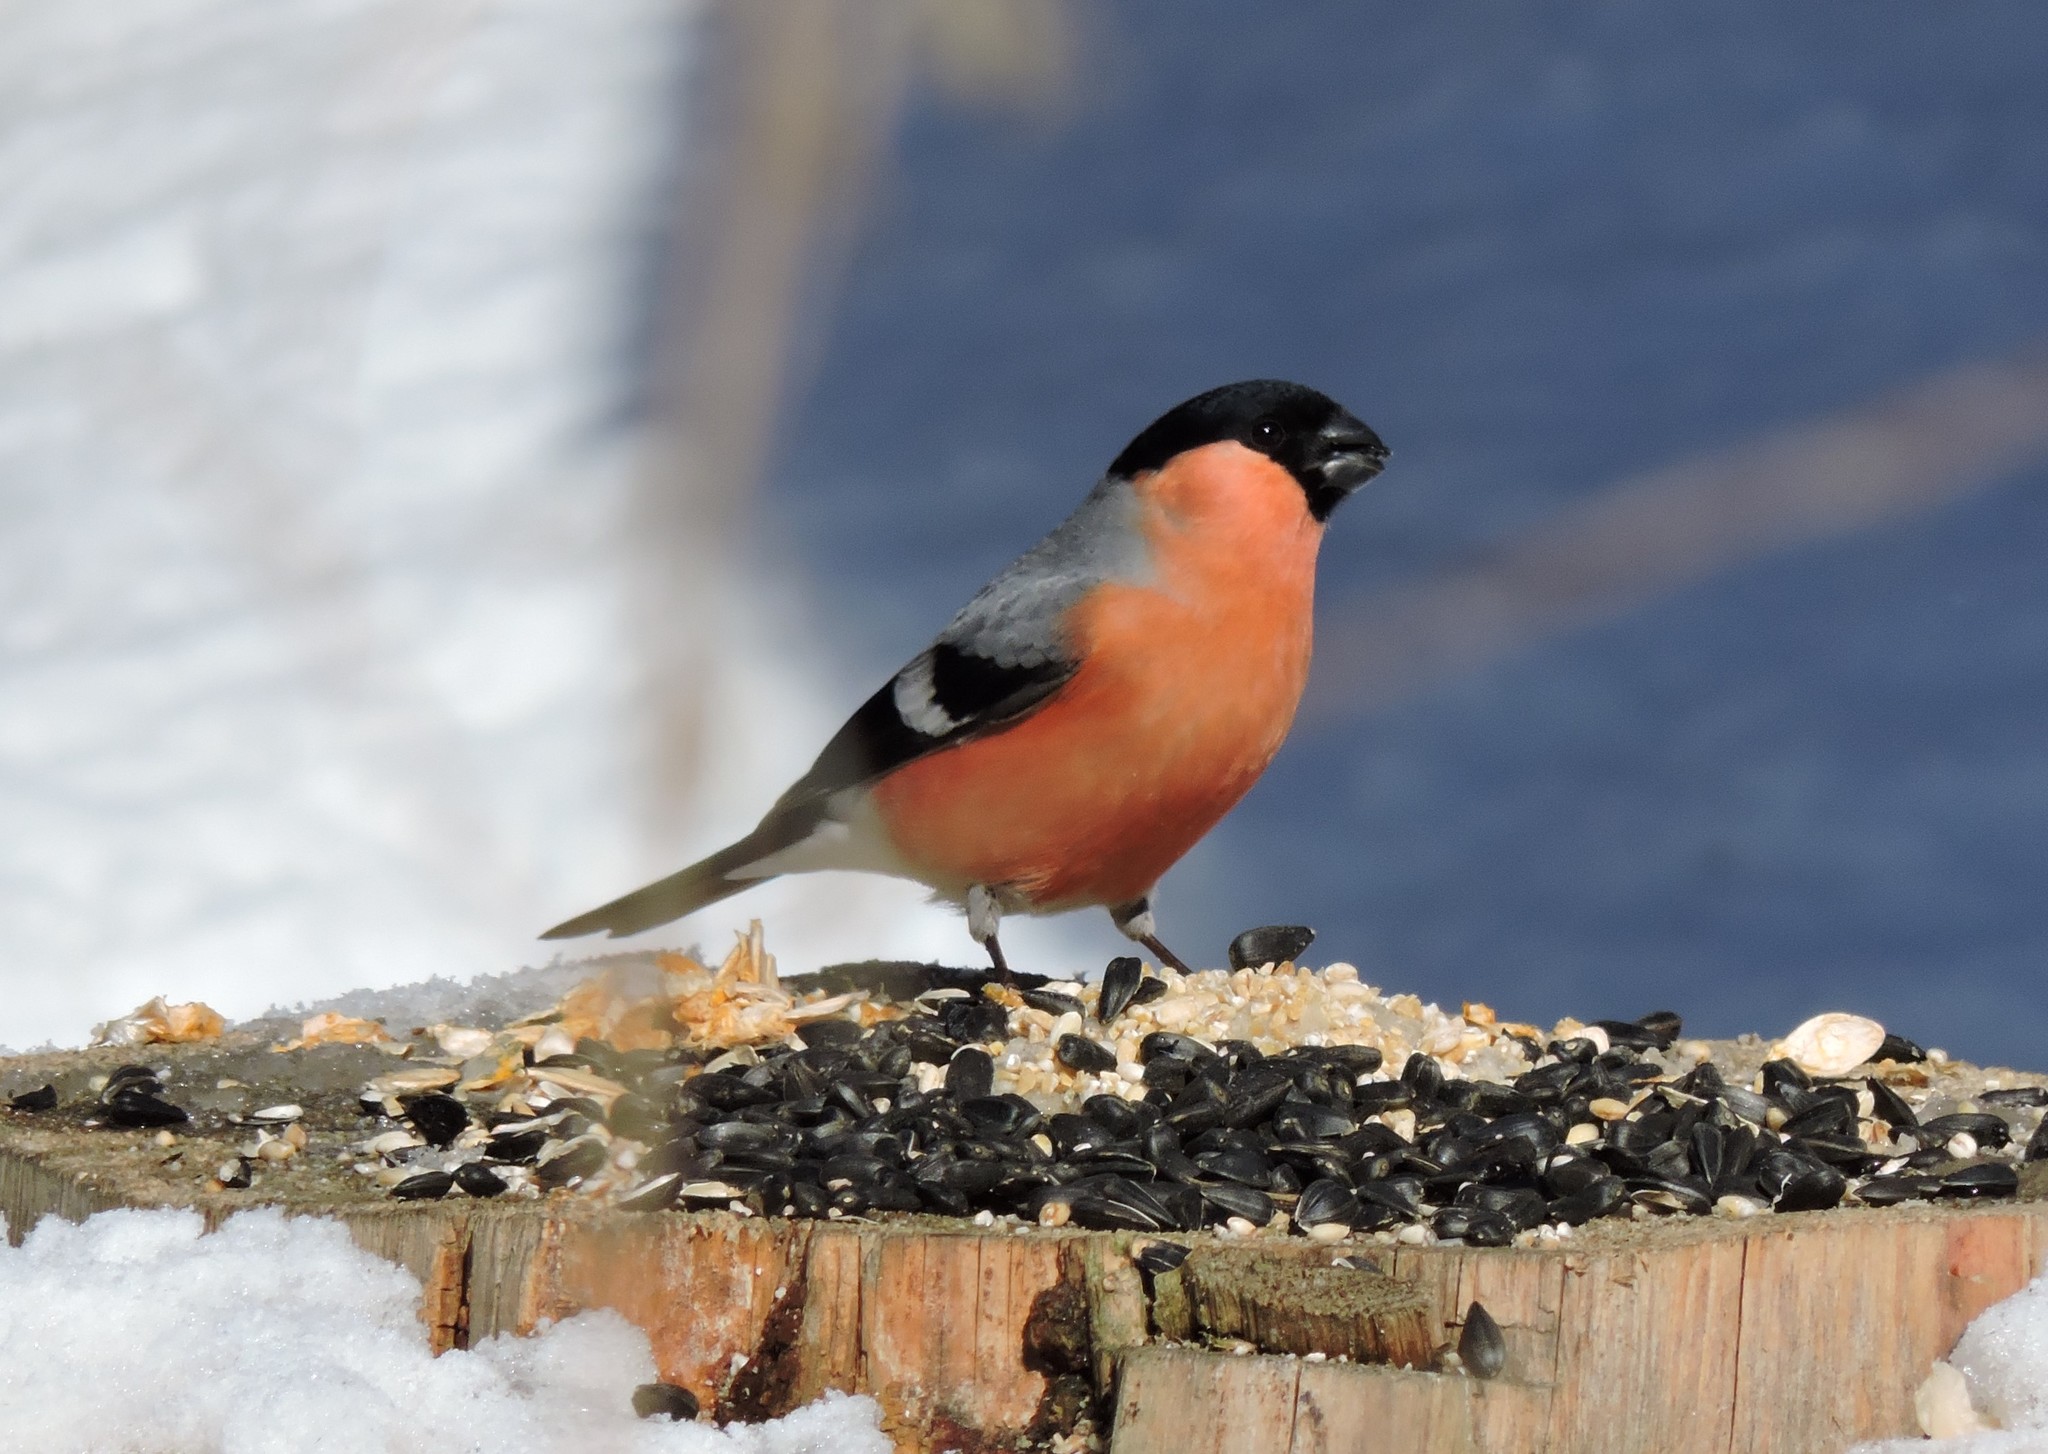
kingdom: Animalia
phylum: Chordata
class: Aves
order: Passeriformes
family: Fringillidae
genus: Pyrrhula
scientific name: Pyrrhula pyrrhula
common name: Eurasian bullfinch
